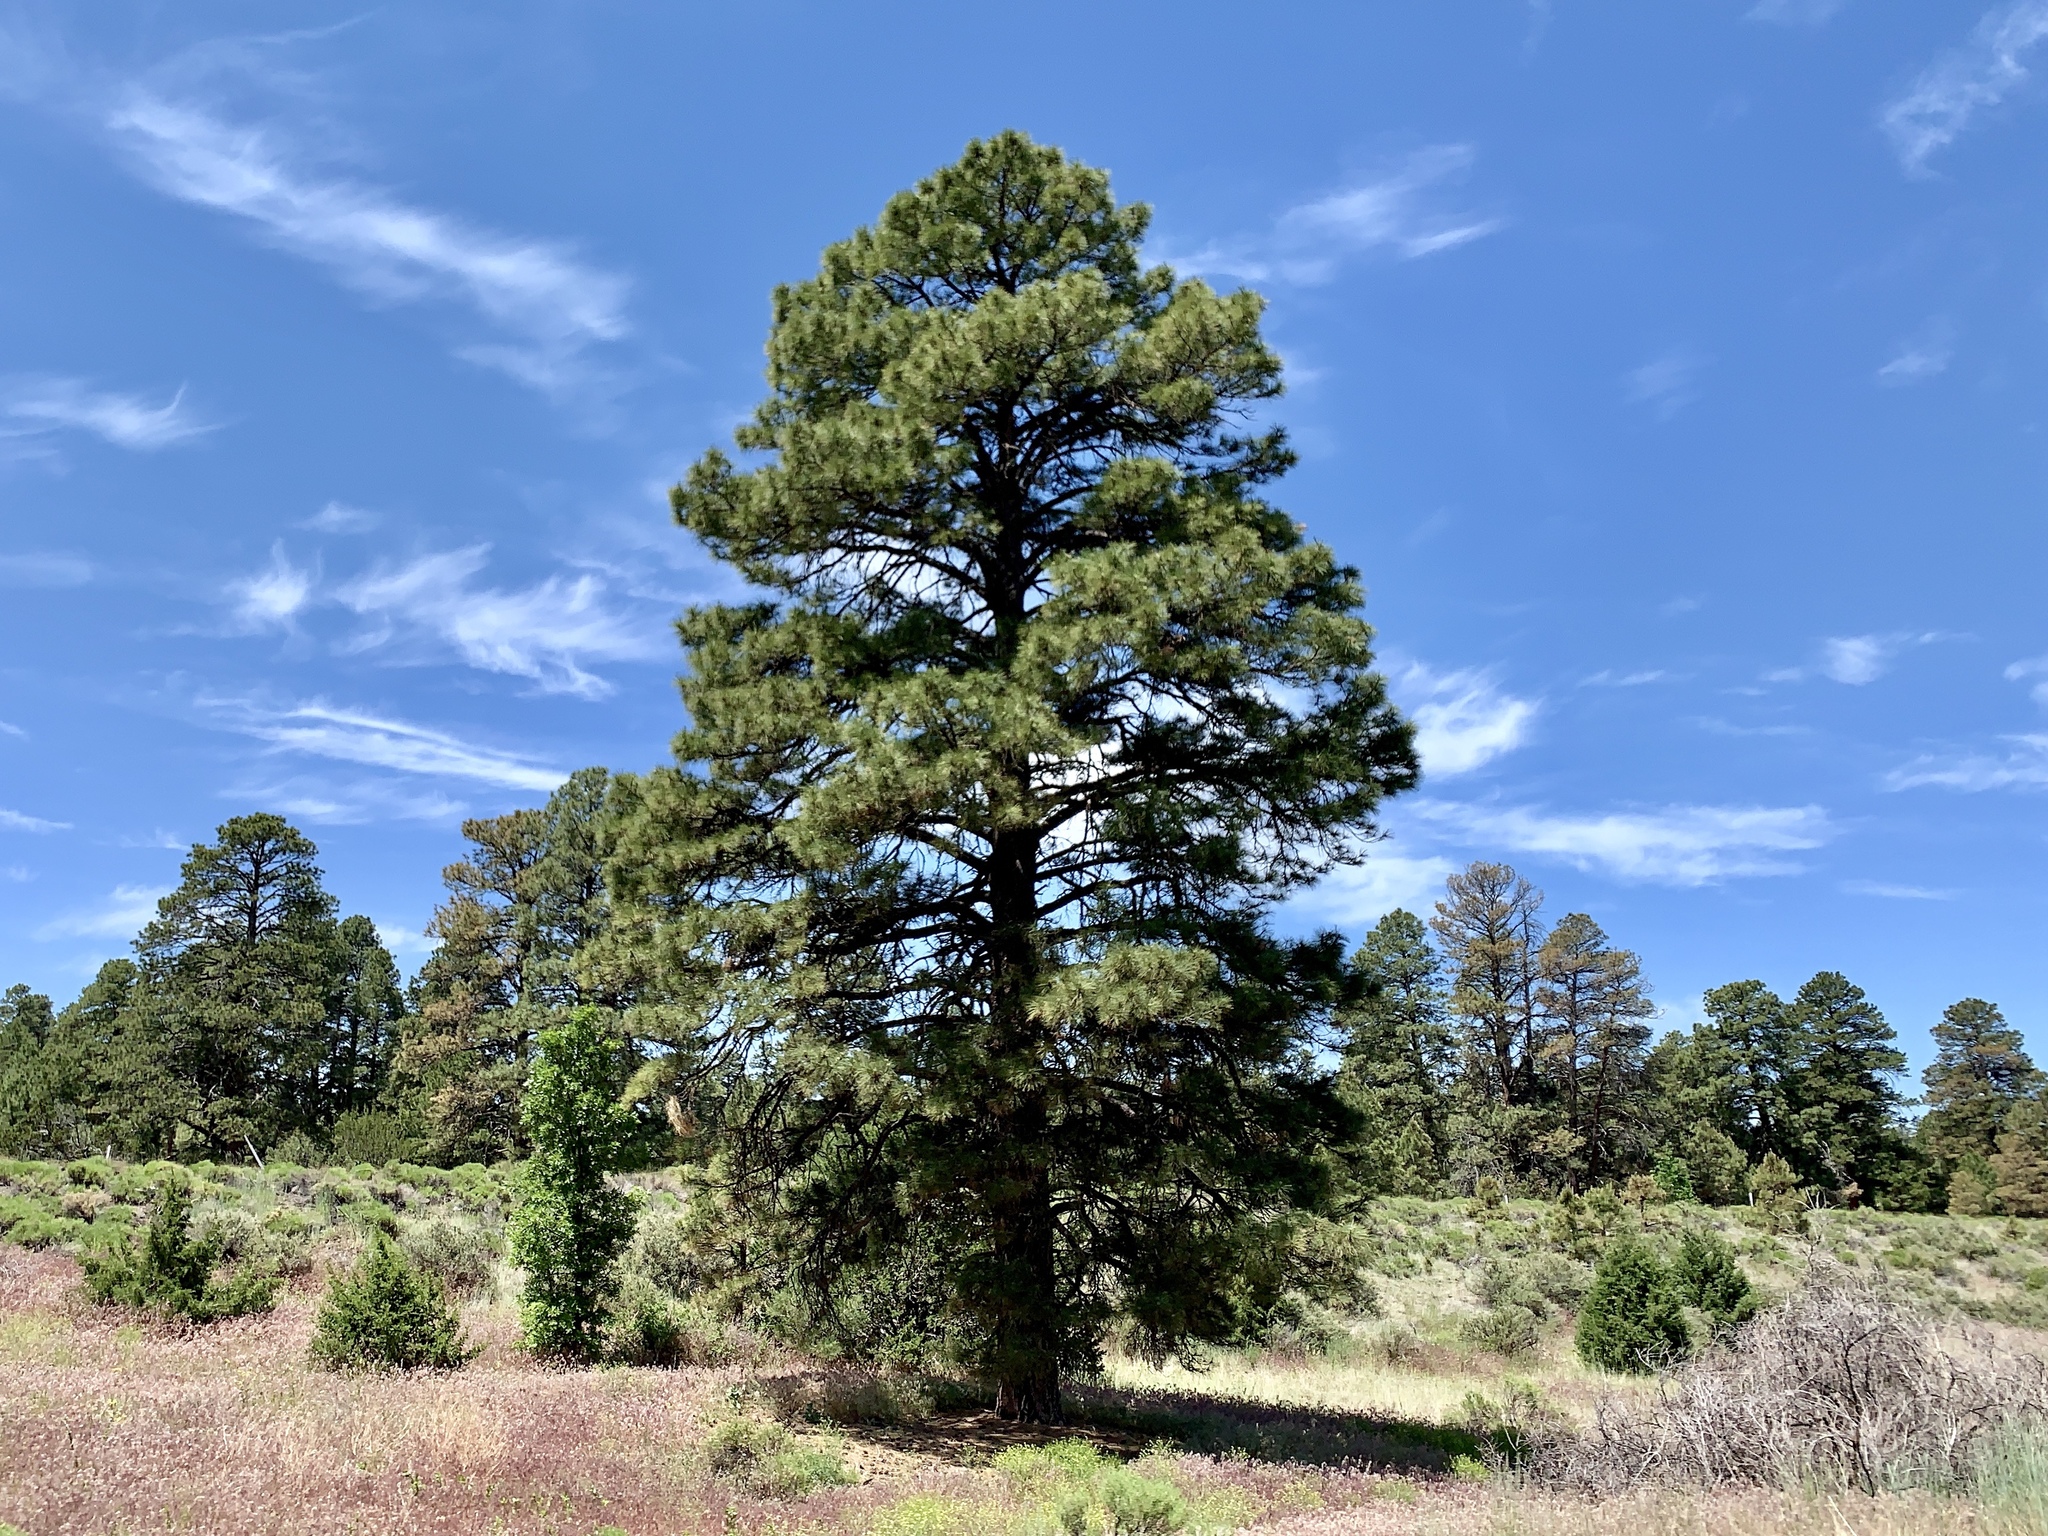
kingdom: Plantae
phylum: Tracheophyta
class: Pinopsida
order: Pinales
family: Pinaceae
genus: Pinus
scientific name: Pinus ponderosa
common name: Western yellow-pine
